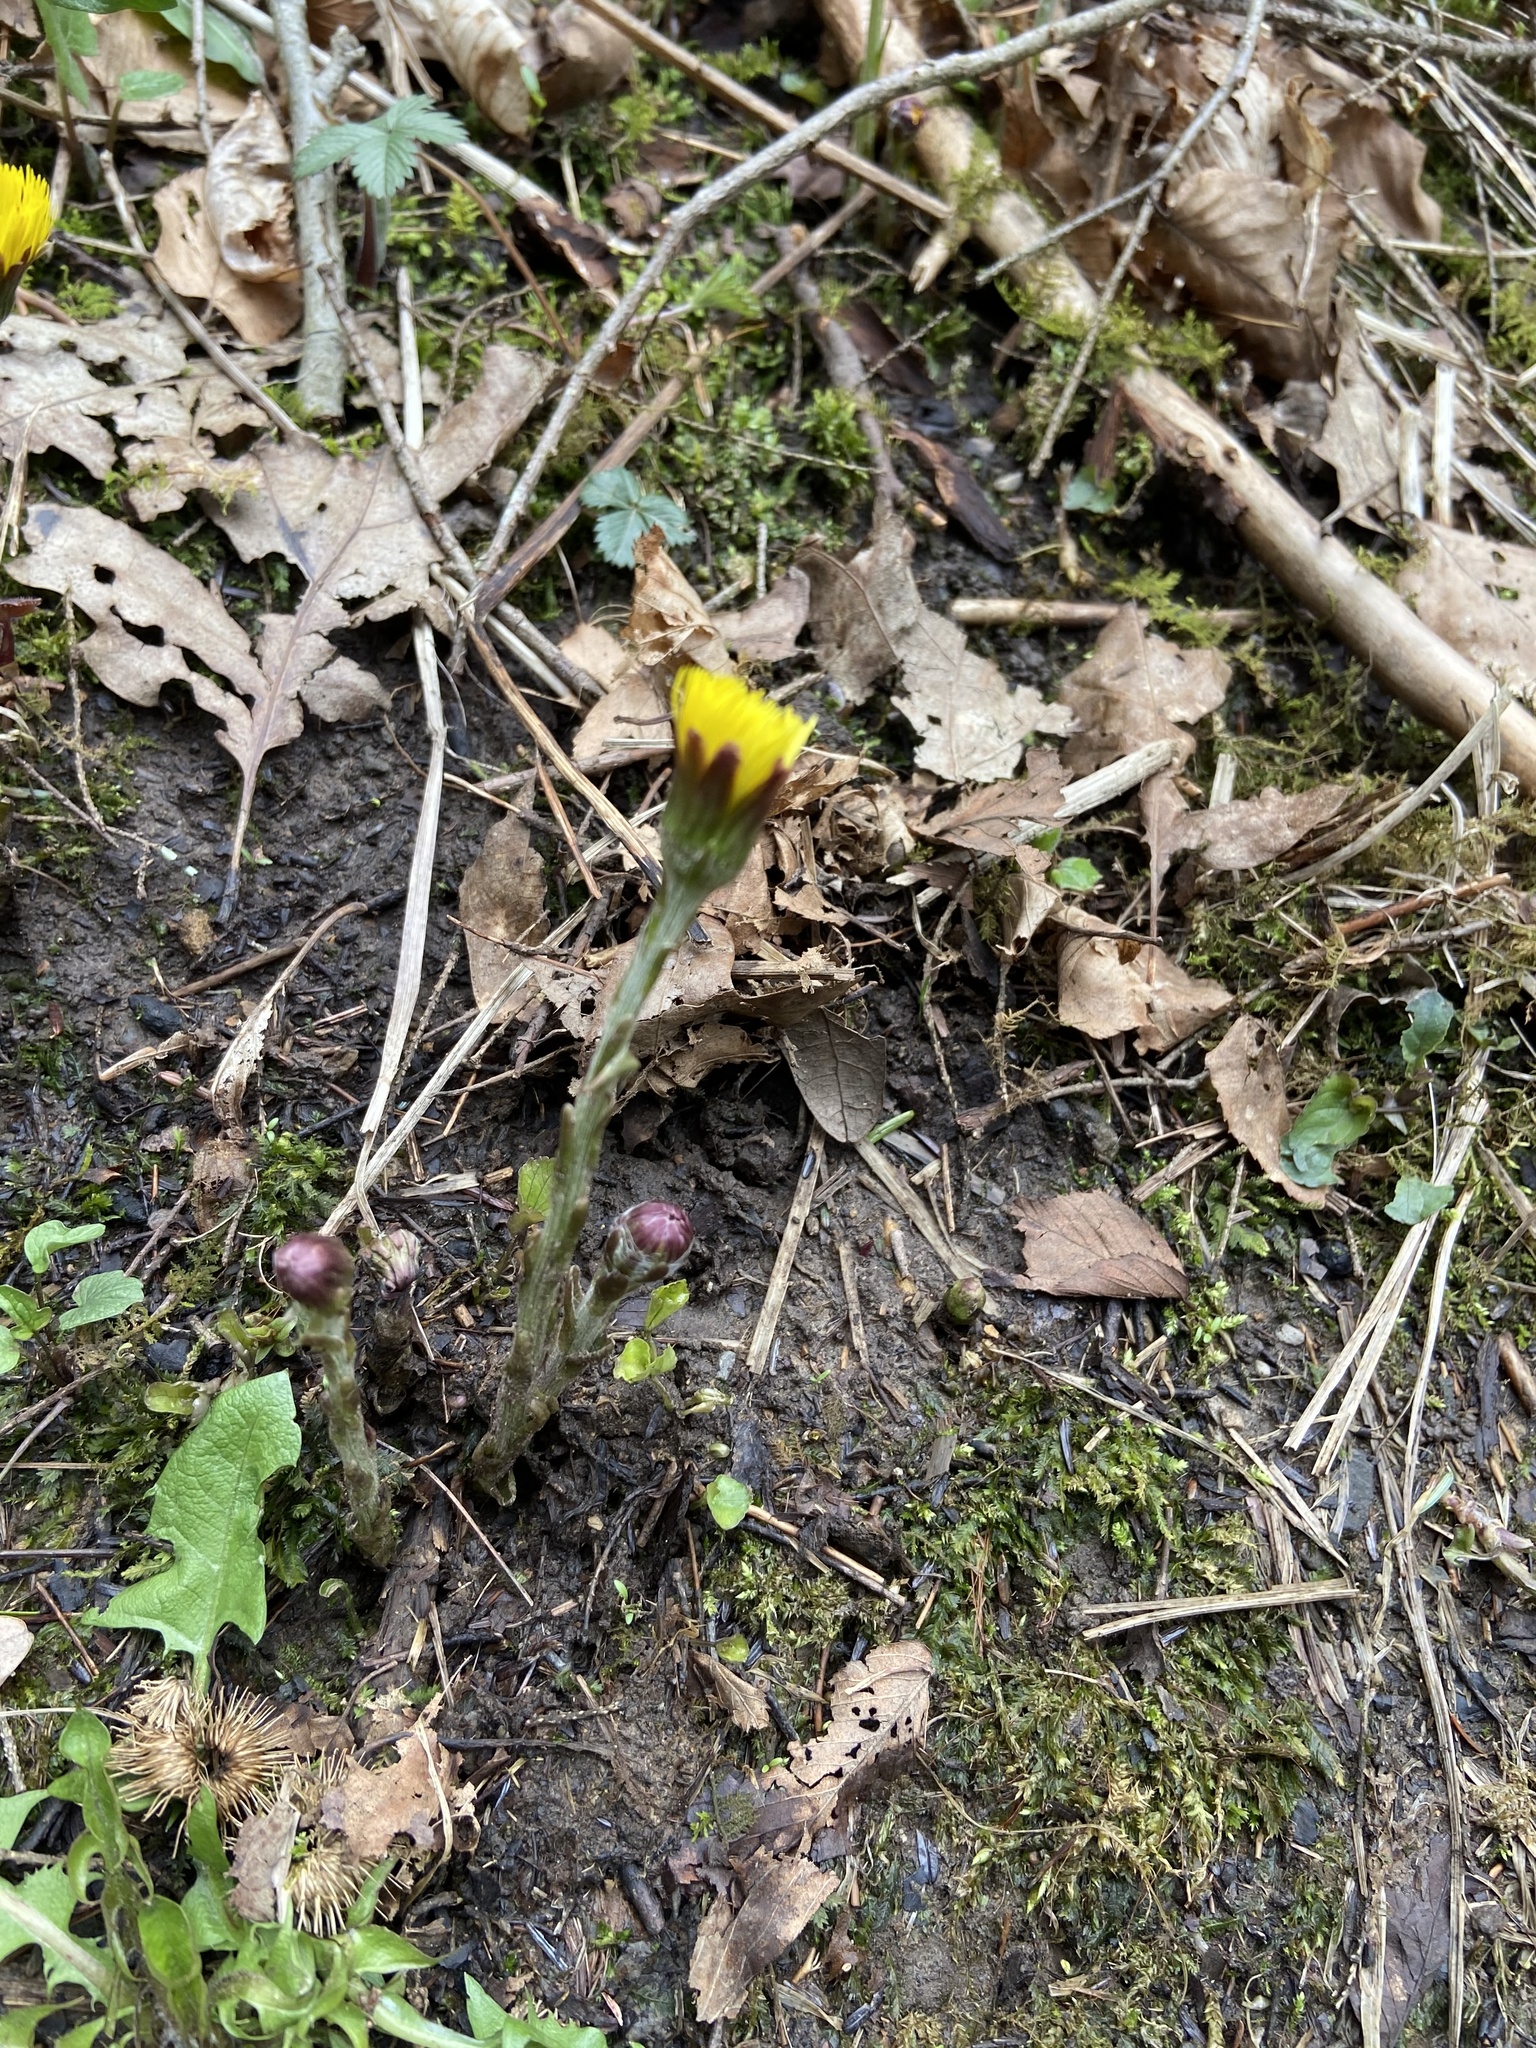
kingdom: Plantae
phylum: Tracheophyta
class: Magnoliopsida
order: Asterales
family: Asteraceae
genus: Tussilago
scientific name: Tussilago farfara
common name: Coltsfoot
